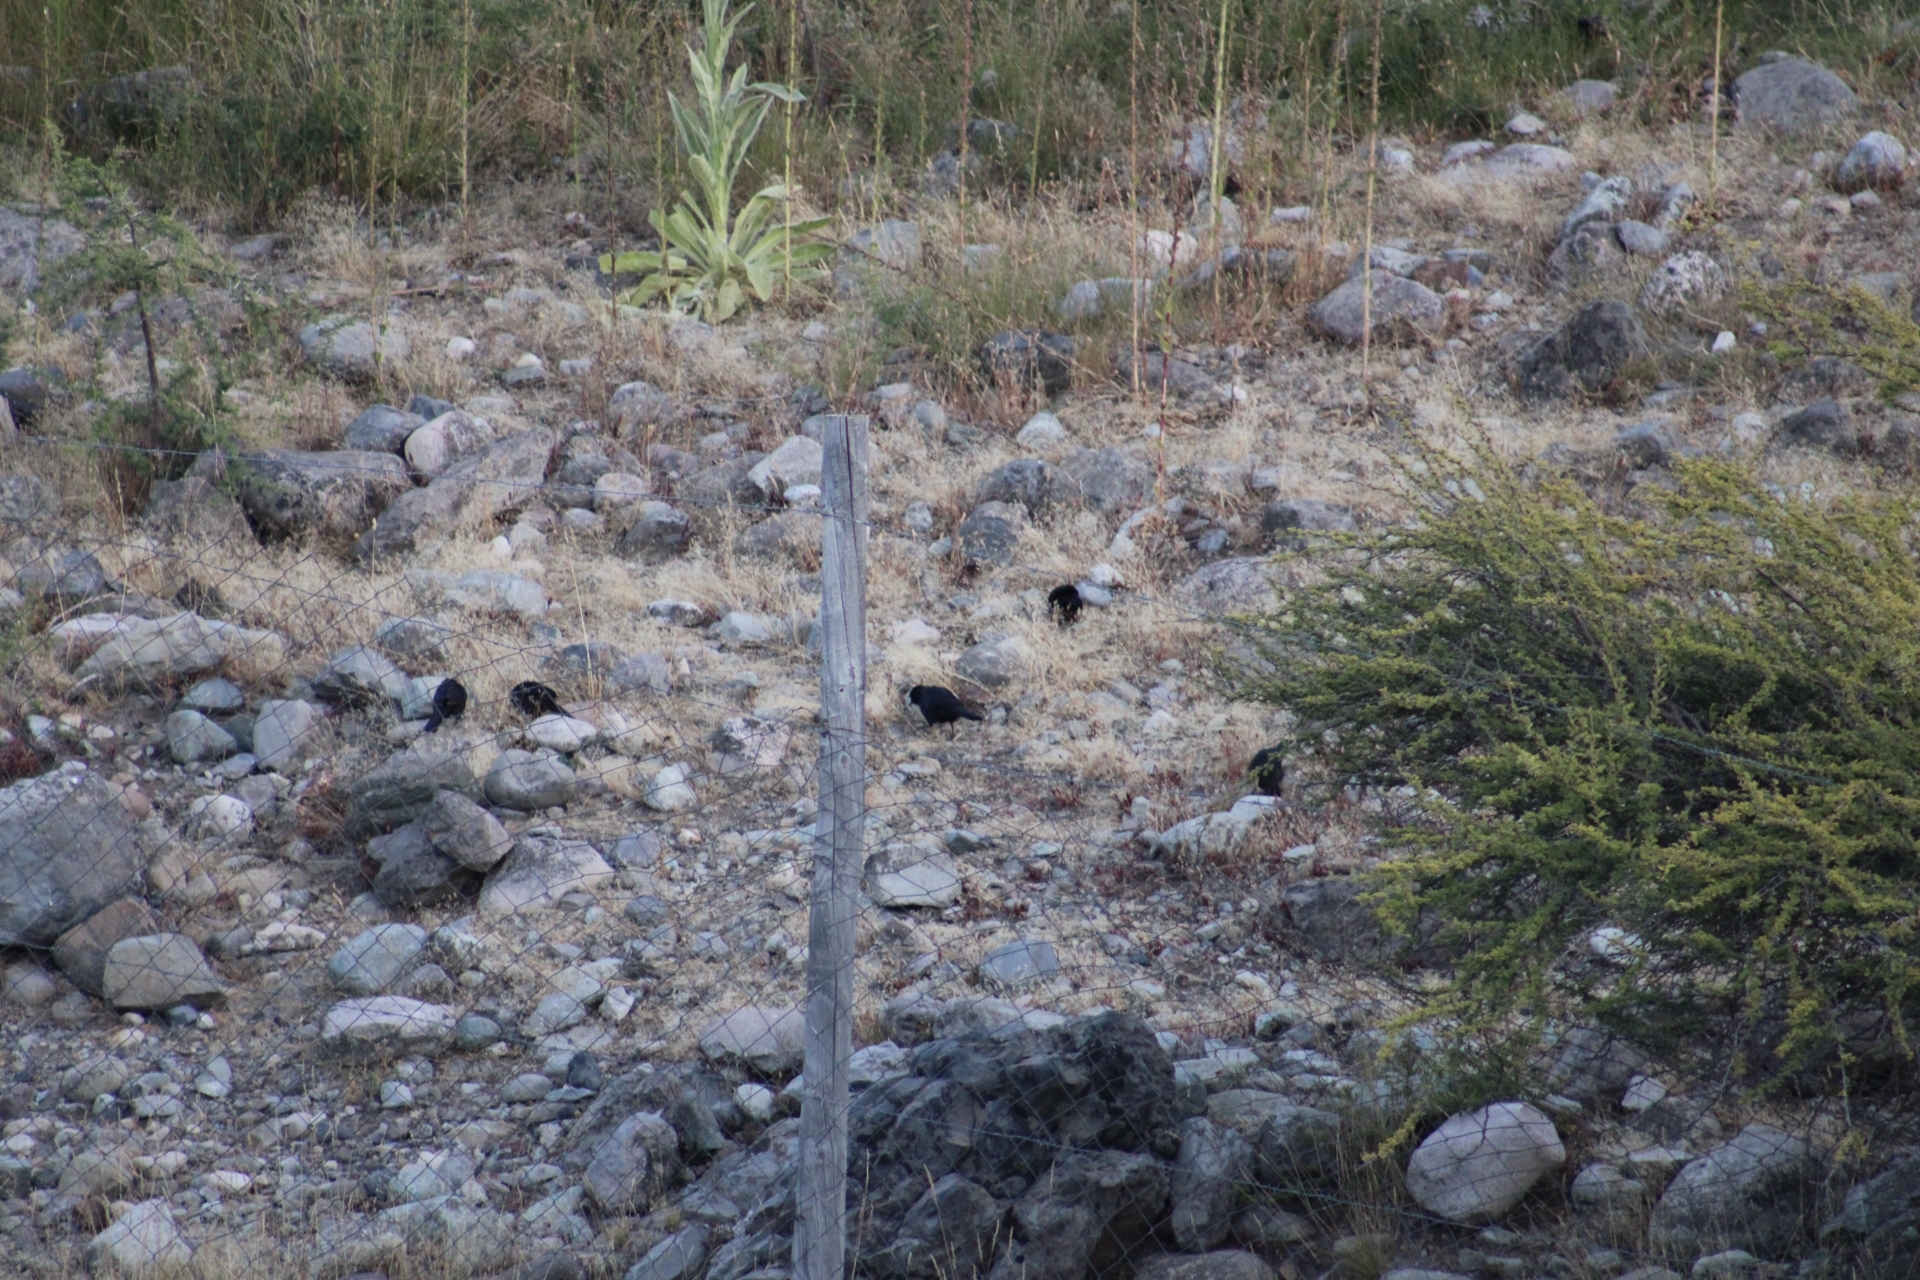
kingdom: Animalia
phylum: Chordata
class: Aves
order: Passeriformes
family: Icteridae
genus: Curaeus
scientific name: Curaeus curaeus
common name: Austral blackbird
